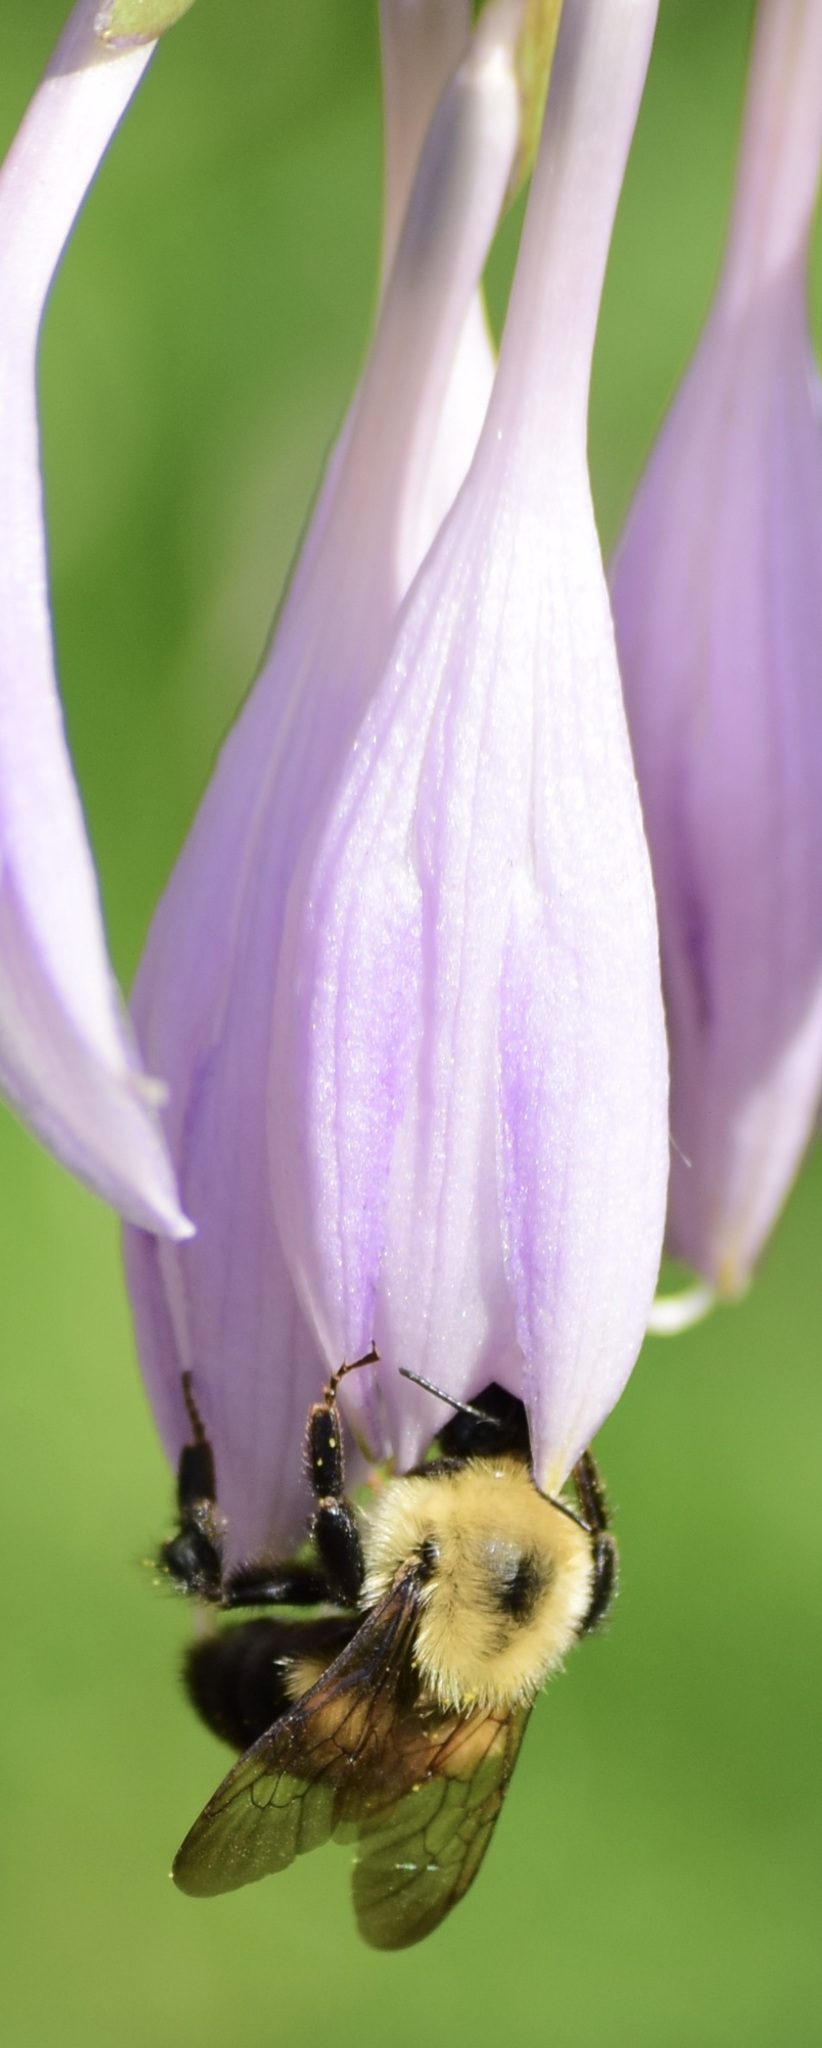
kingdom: Animalia
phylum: Arthropoda
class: Insecta
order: Hymenoptera
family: Apidae
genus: Bombus
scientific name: Bombus bimaculatus
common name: Two-spotted bumble bee
